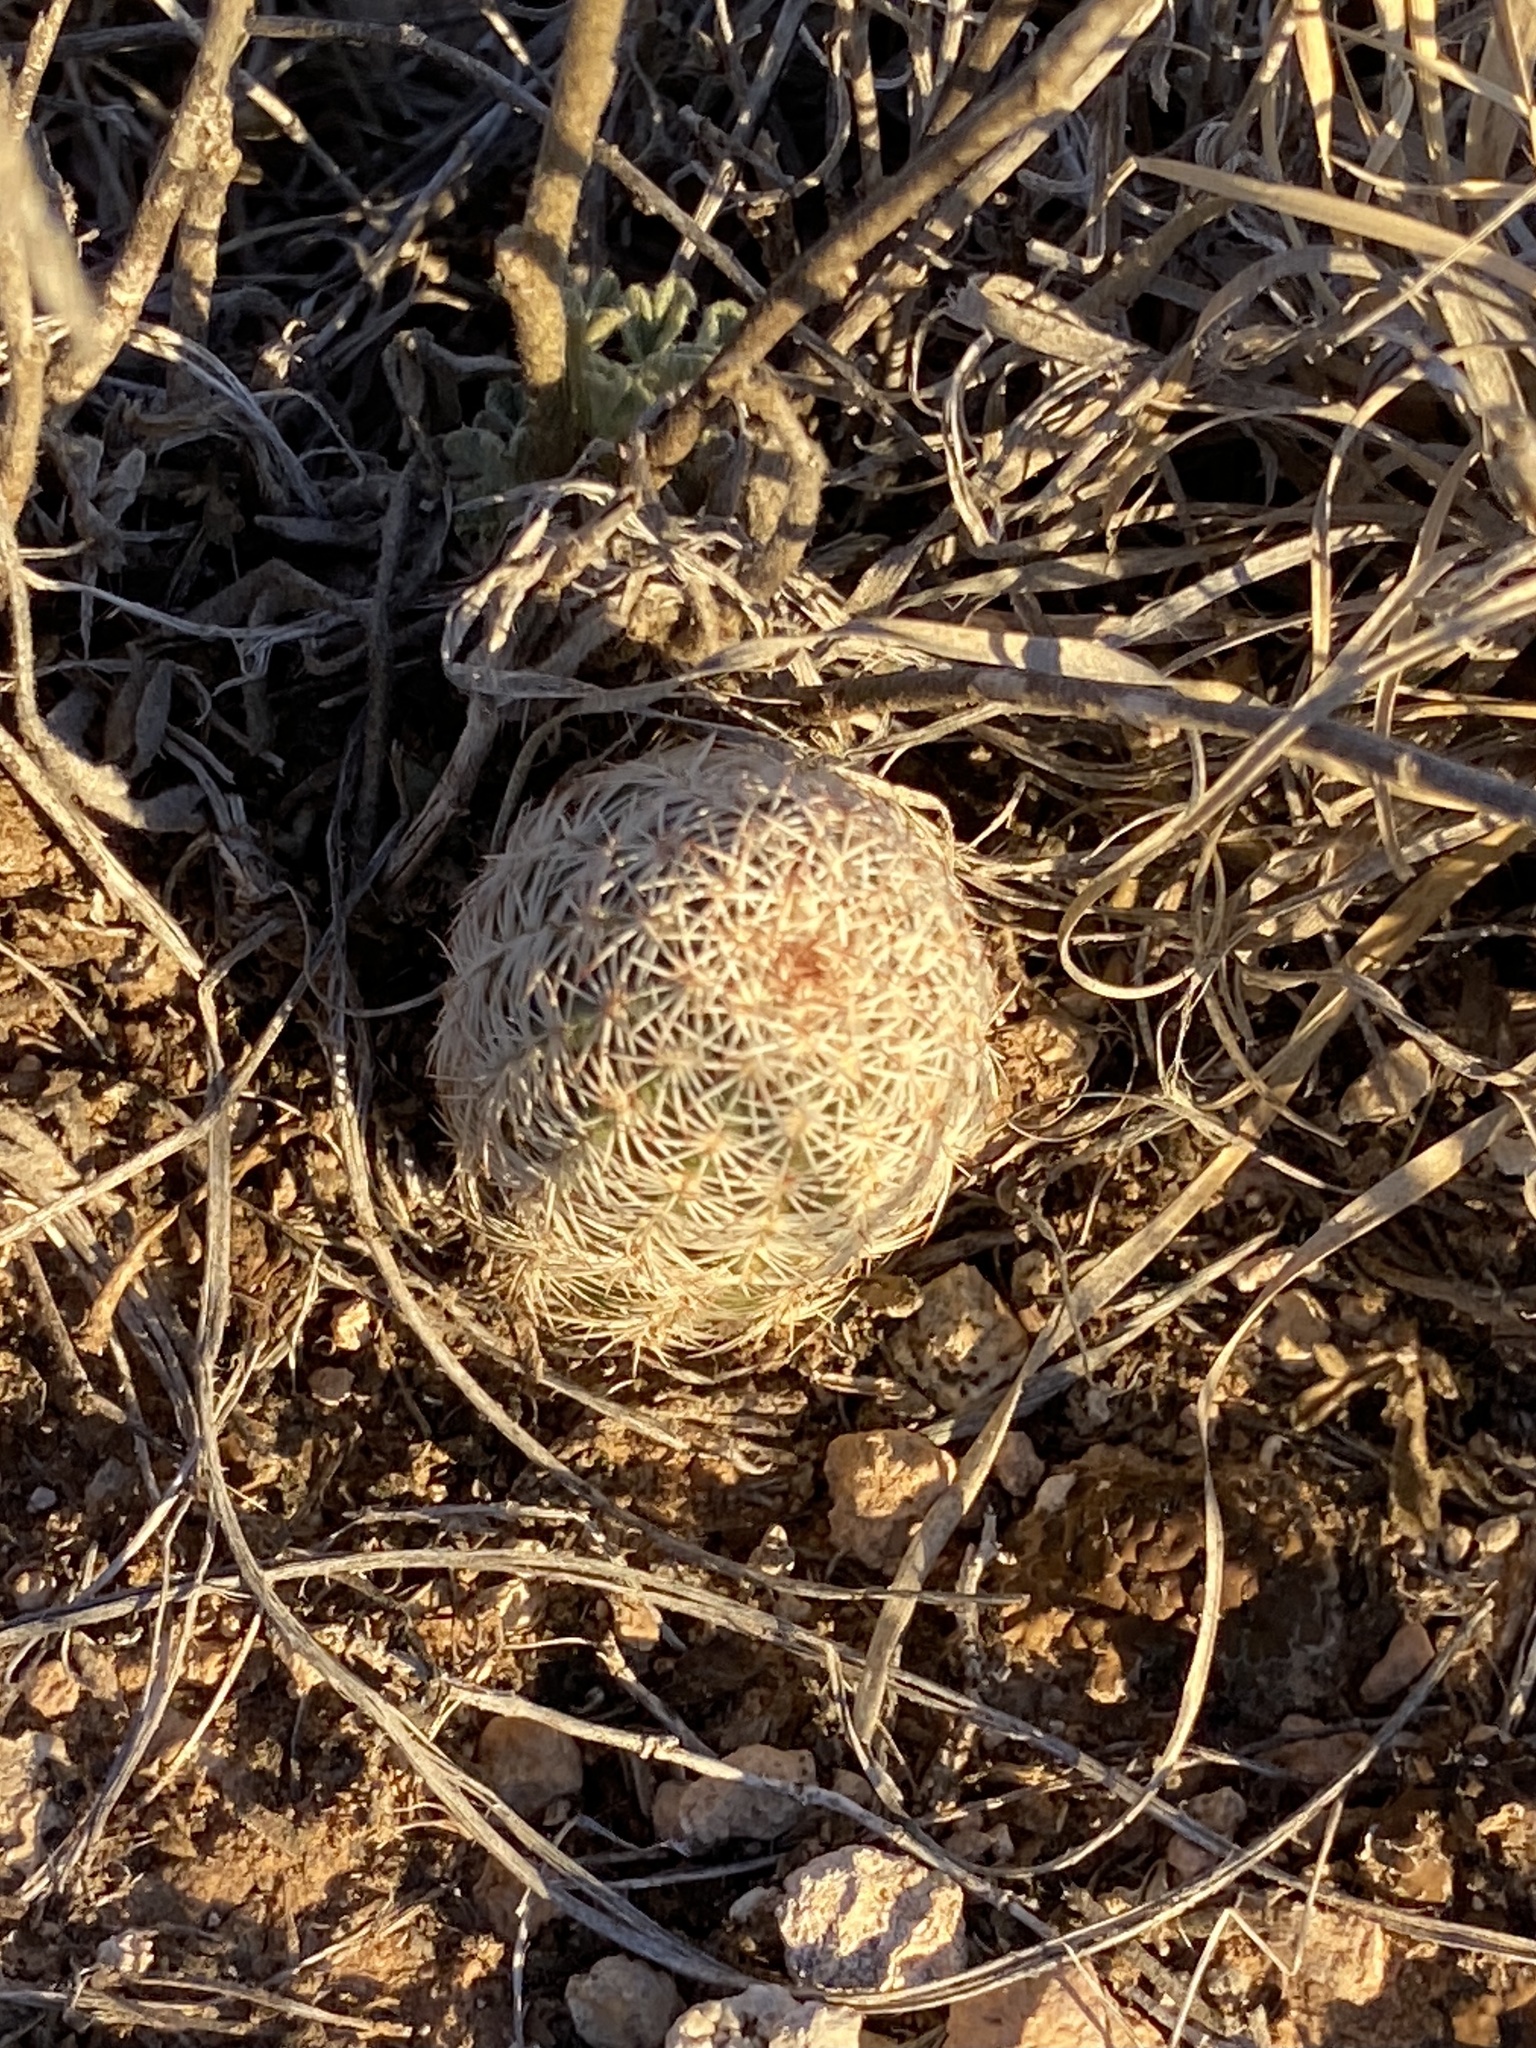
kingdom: Plantae
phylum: Tracheophyta
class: Magnoliopsida
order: Caryophyllales
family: Cactaceae
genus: Echinocereus
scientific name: Echinocereus reichenbachii
